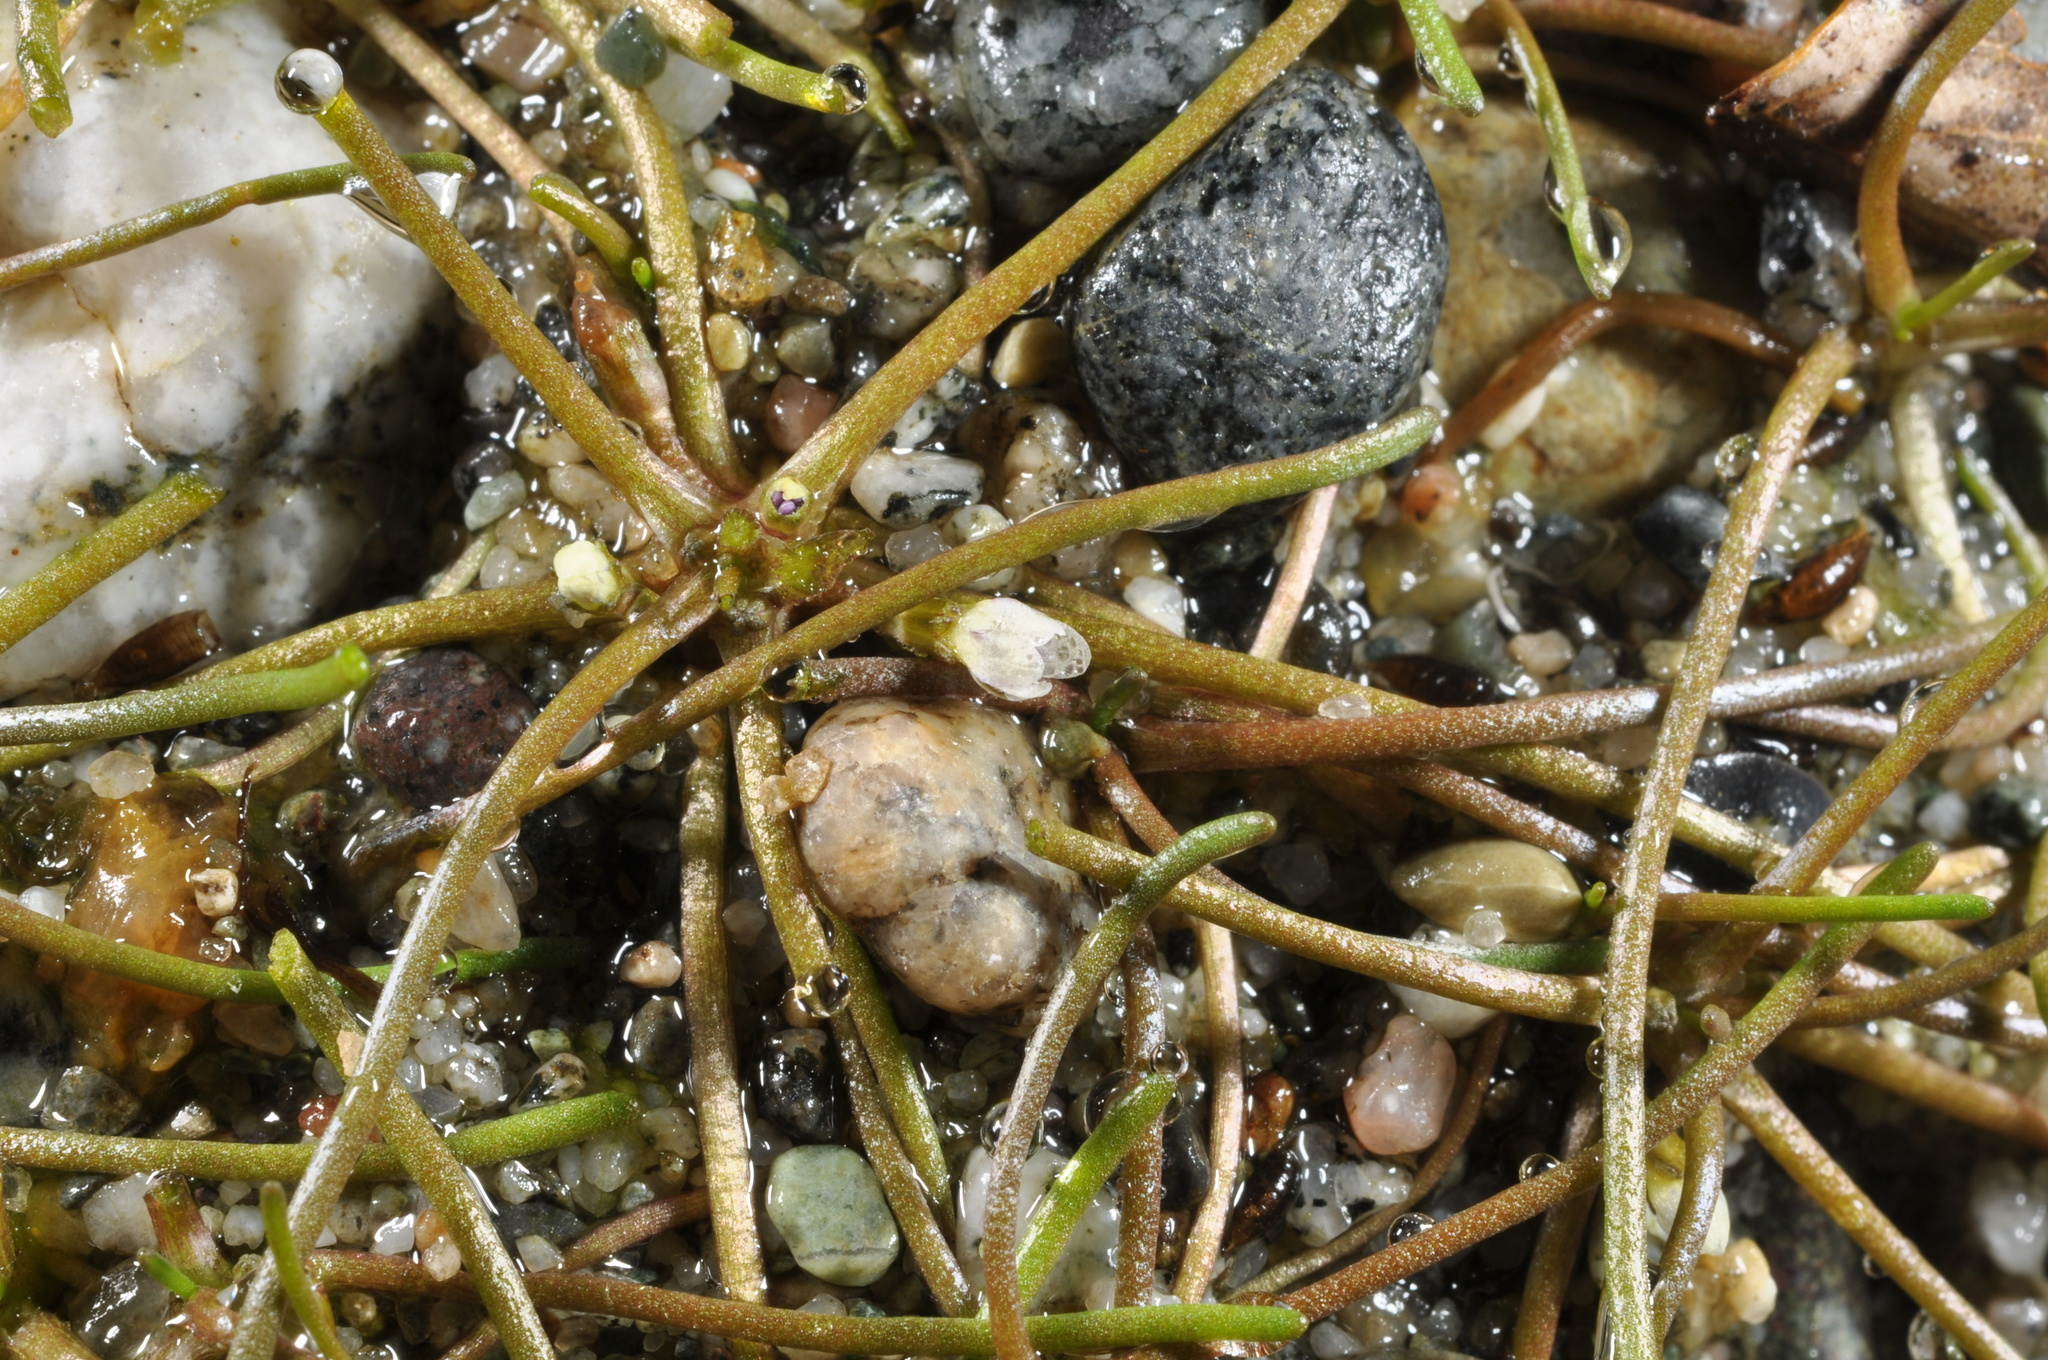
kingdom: Plantae
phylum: Tracheophyta
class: Magnoliopsida
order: Lamiales
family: Scrophulariaceae
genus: Limosella
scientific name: Limosella australis
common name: Welsh mudwort
